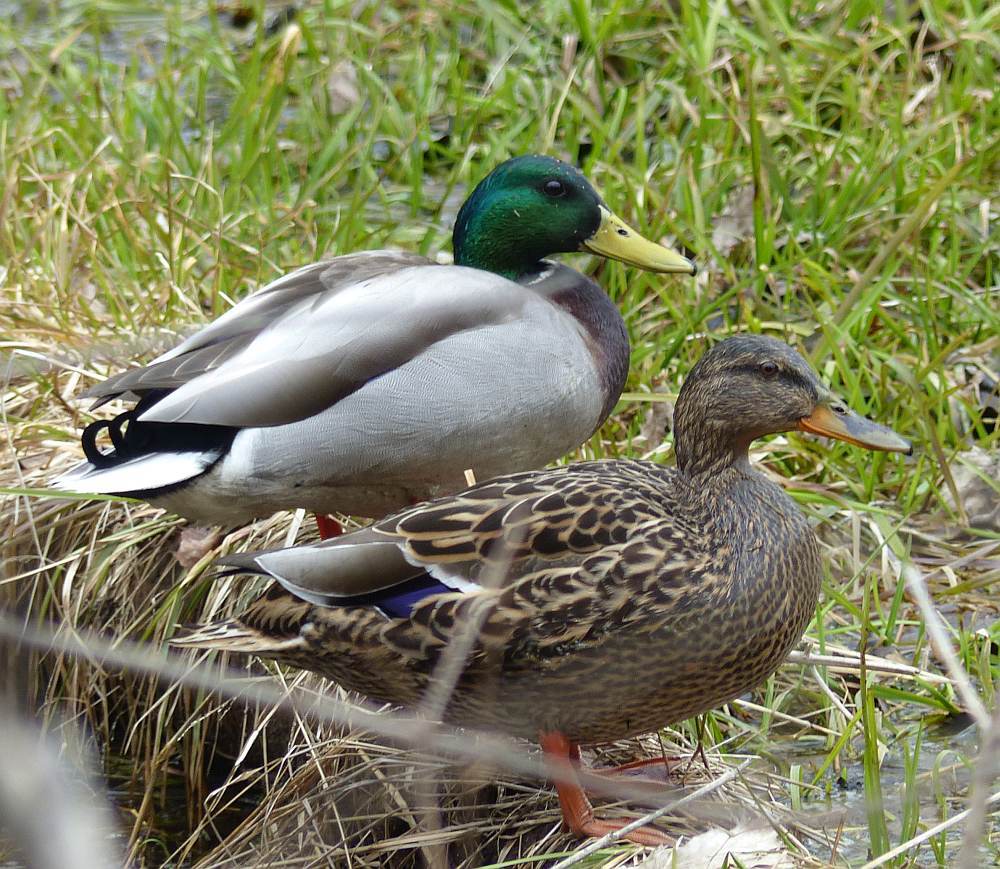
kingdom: Animalia
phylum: Chordata
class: Aves
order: Anseriformes
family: Anatidae
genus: Anas
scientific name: Anas platyrhynchos
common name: Mallard
